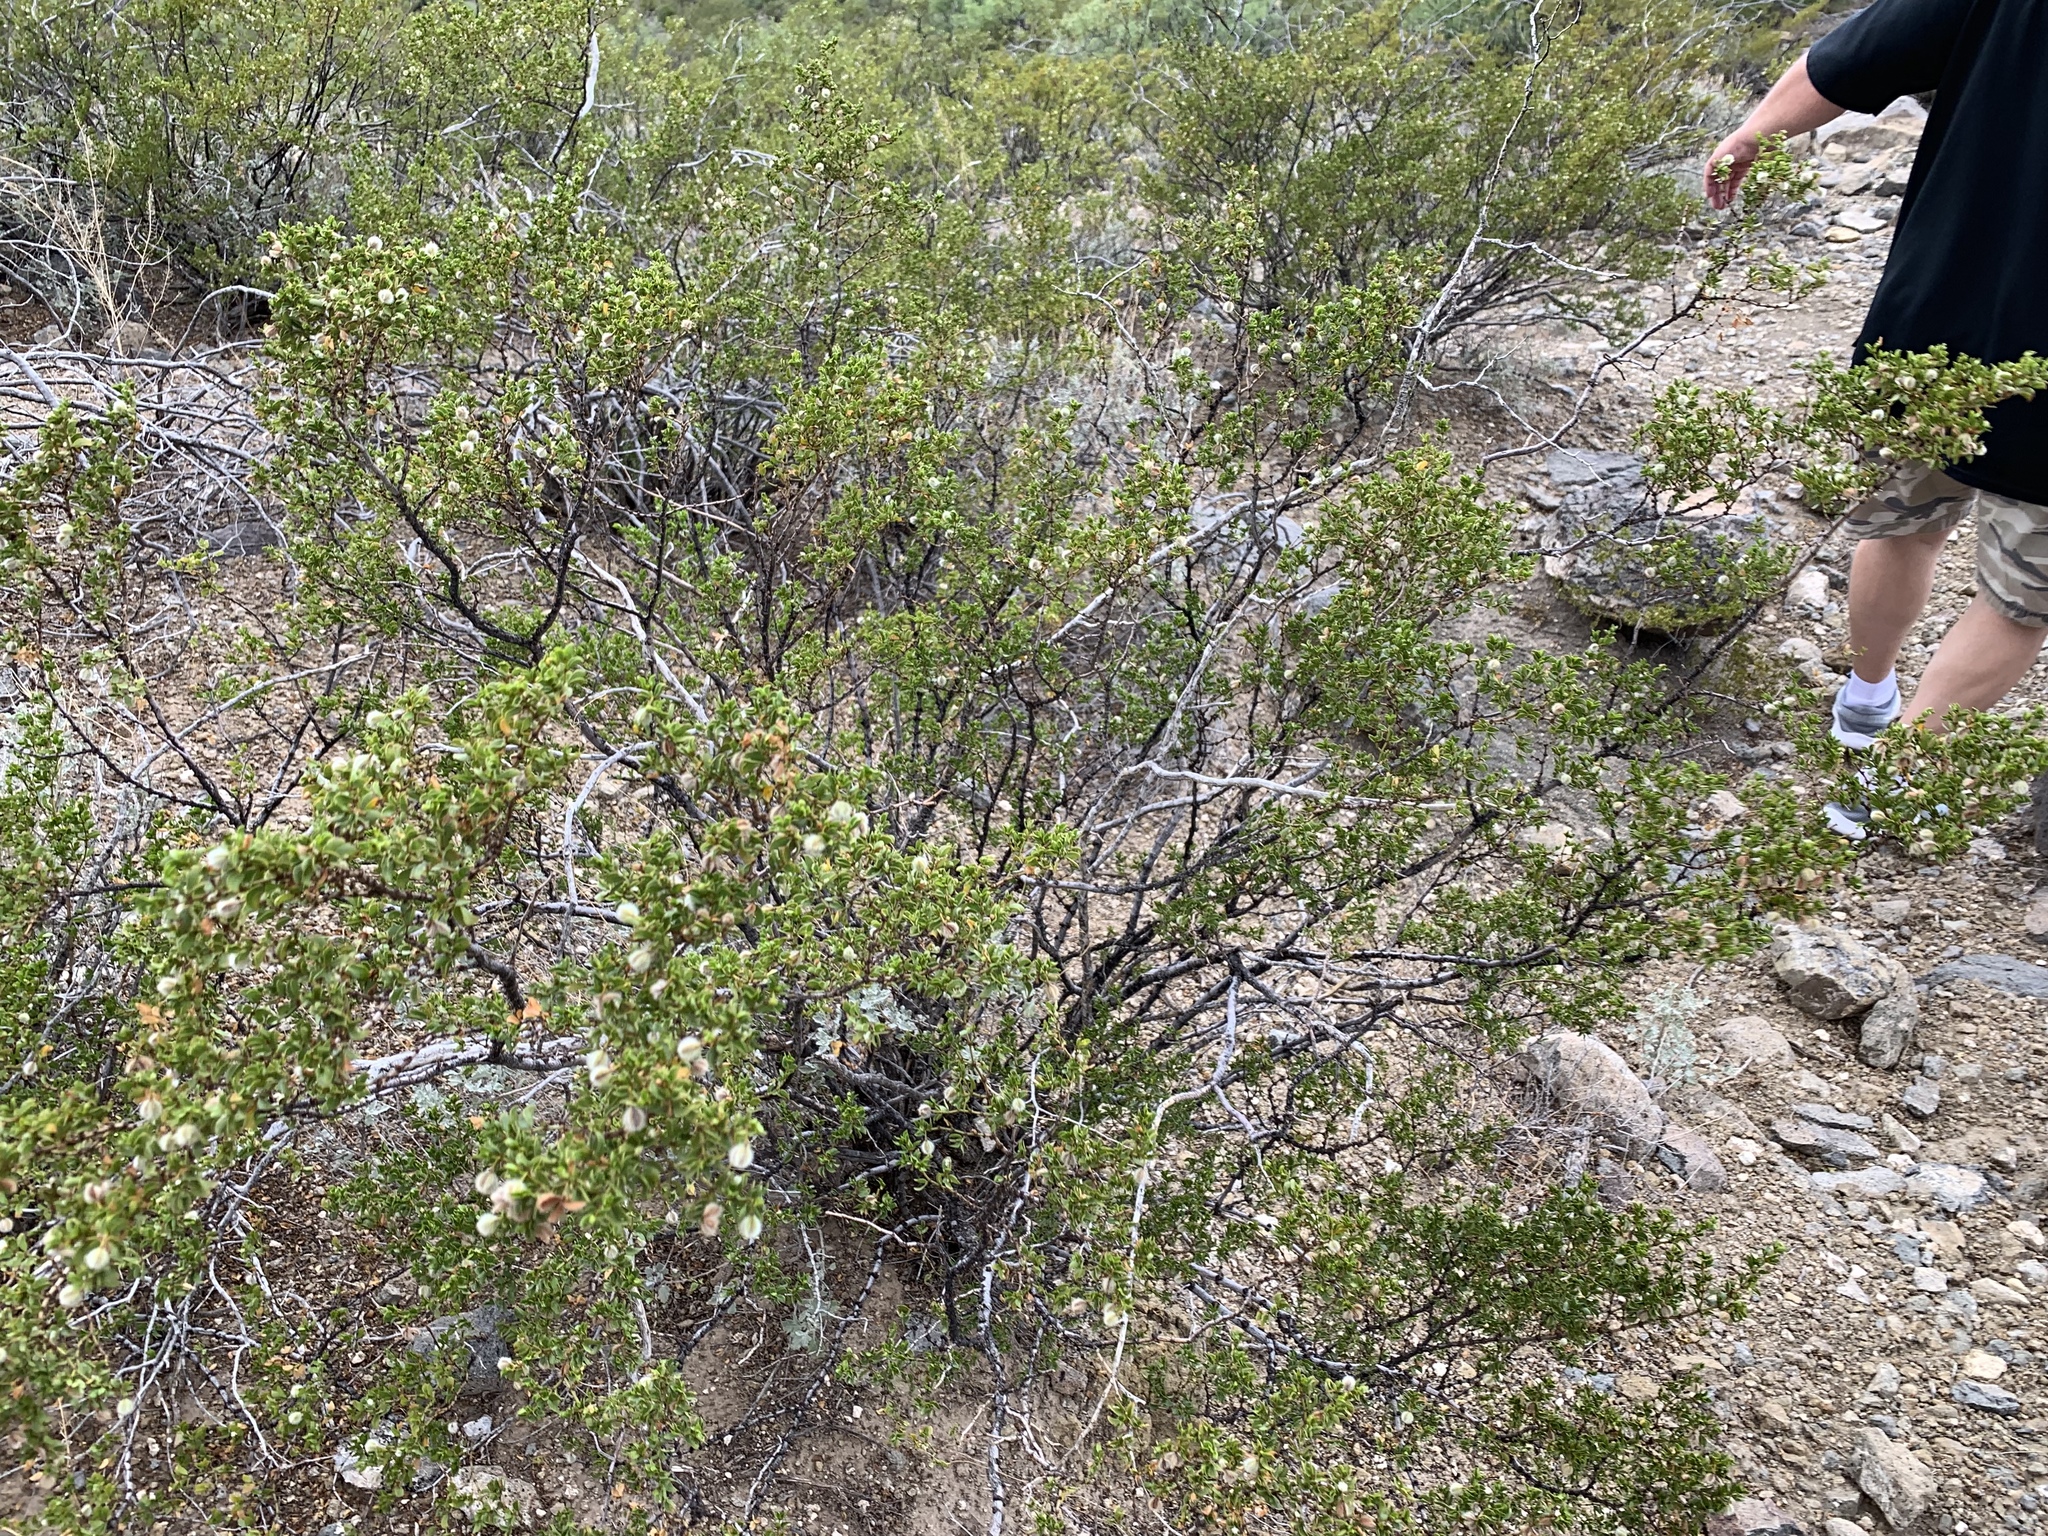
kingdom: Plantae
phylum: Tracheophyta
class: Magnoliopsida
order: Zygophyllales
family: Zygophyllaceae
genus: Larrea
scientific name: Larrea tridentata
